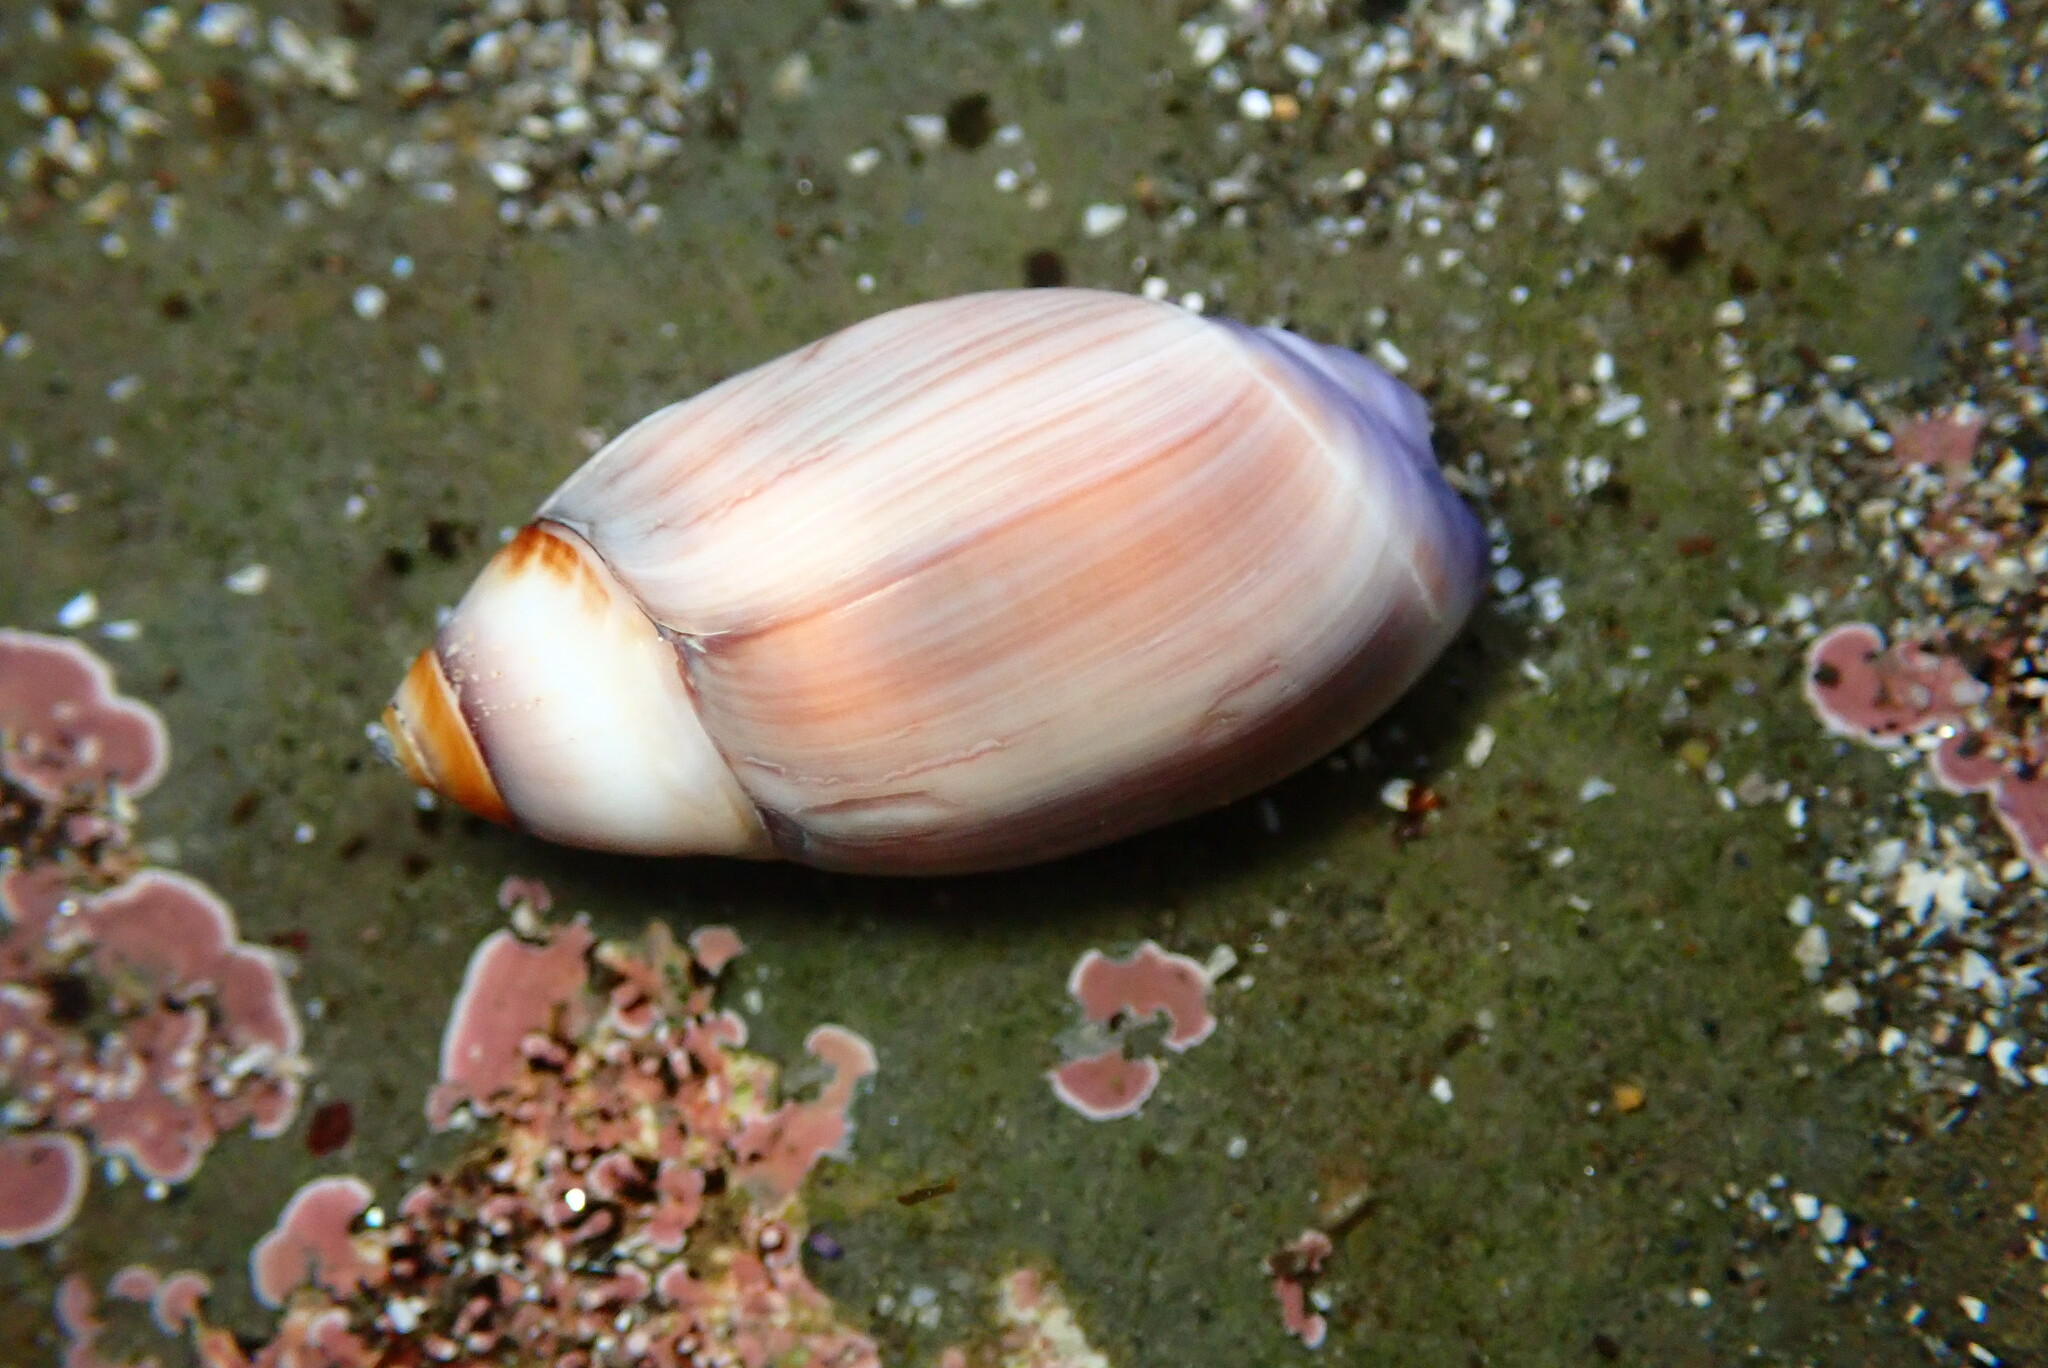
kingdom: Animalia
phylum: Mollusca
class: Gastropoda
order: Neogastropoda
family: Olividae
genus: Callianax
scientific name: Callianax biplicata
